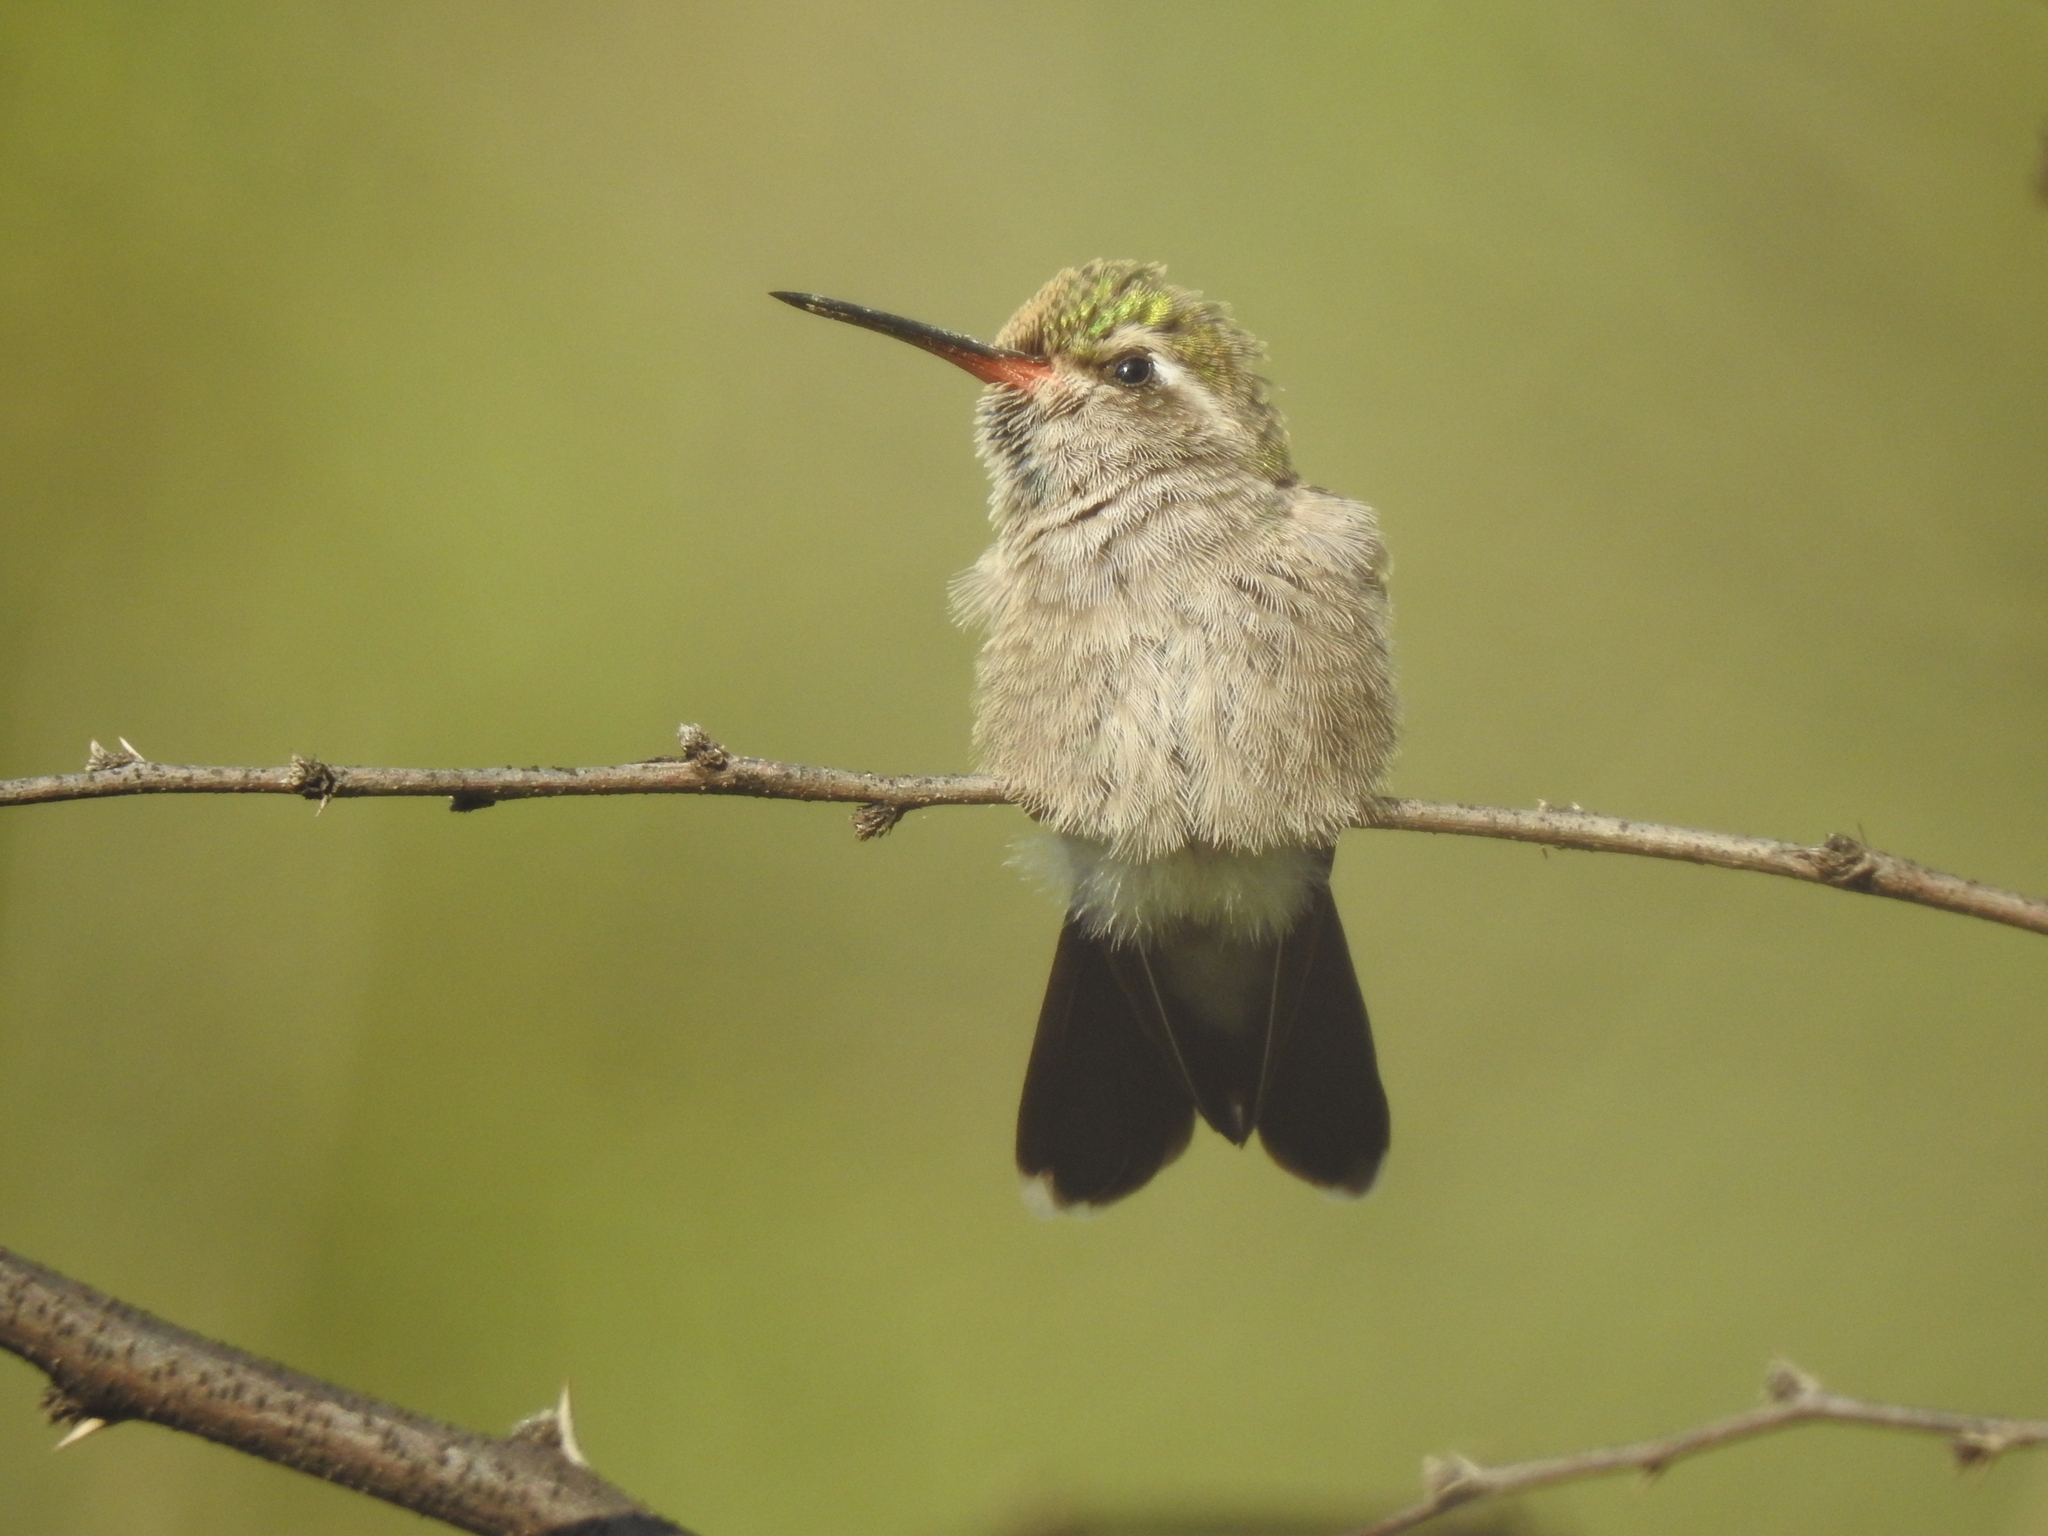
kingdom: Animalia
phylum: Chordata
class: Aves
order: Apodiformes
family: Trochilidae
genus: Cynanthus
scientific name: Cynanthus latirostris
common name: Broad-billed hummingbird
